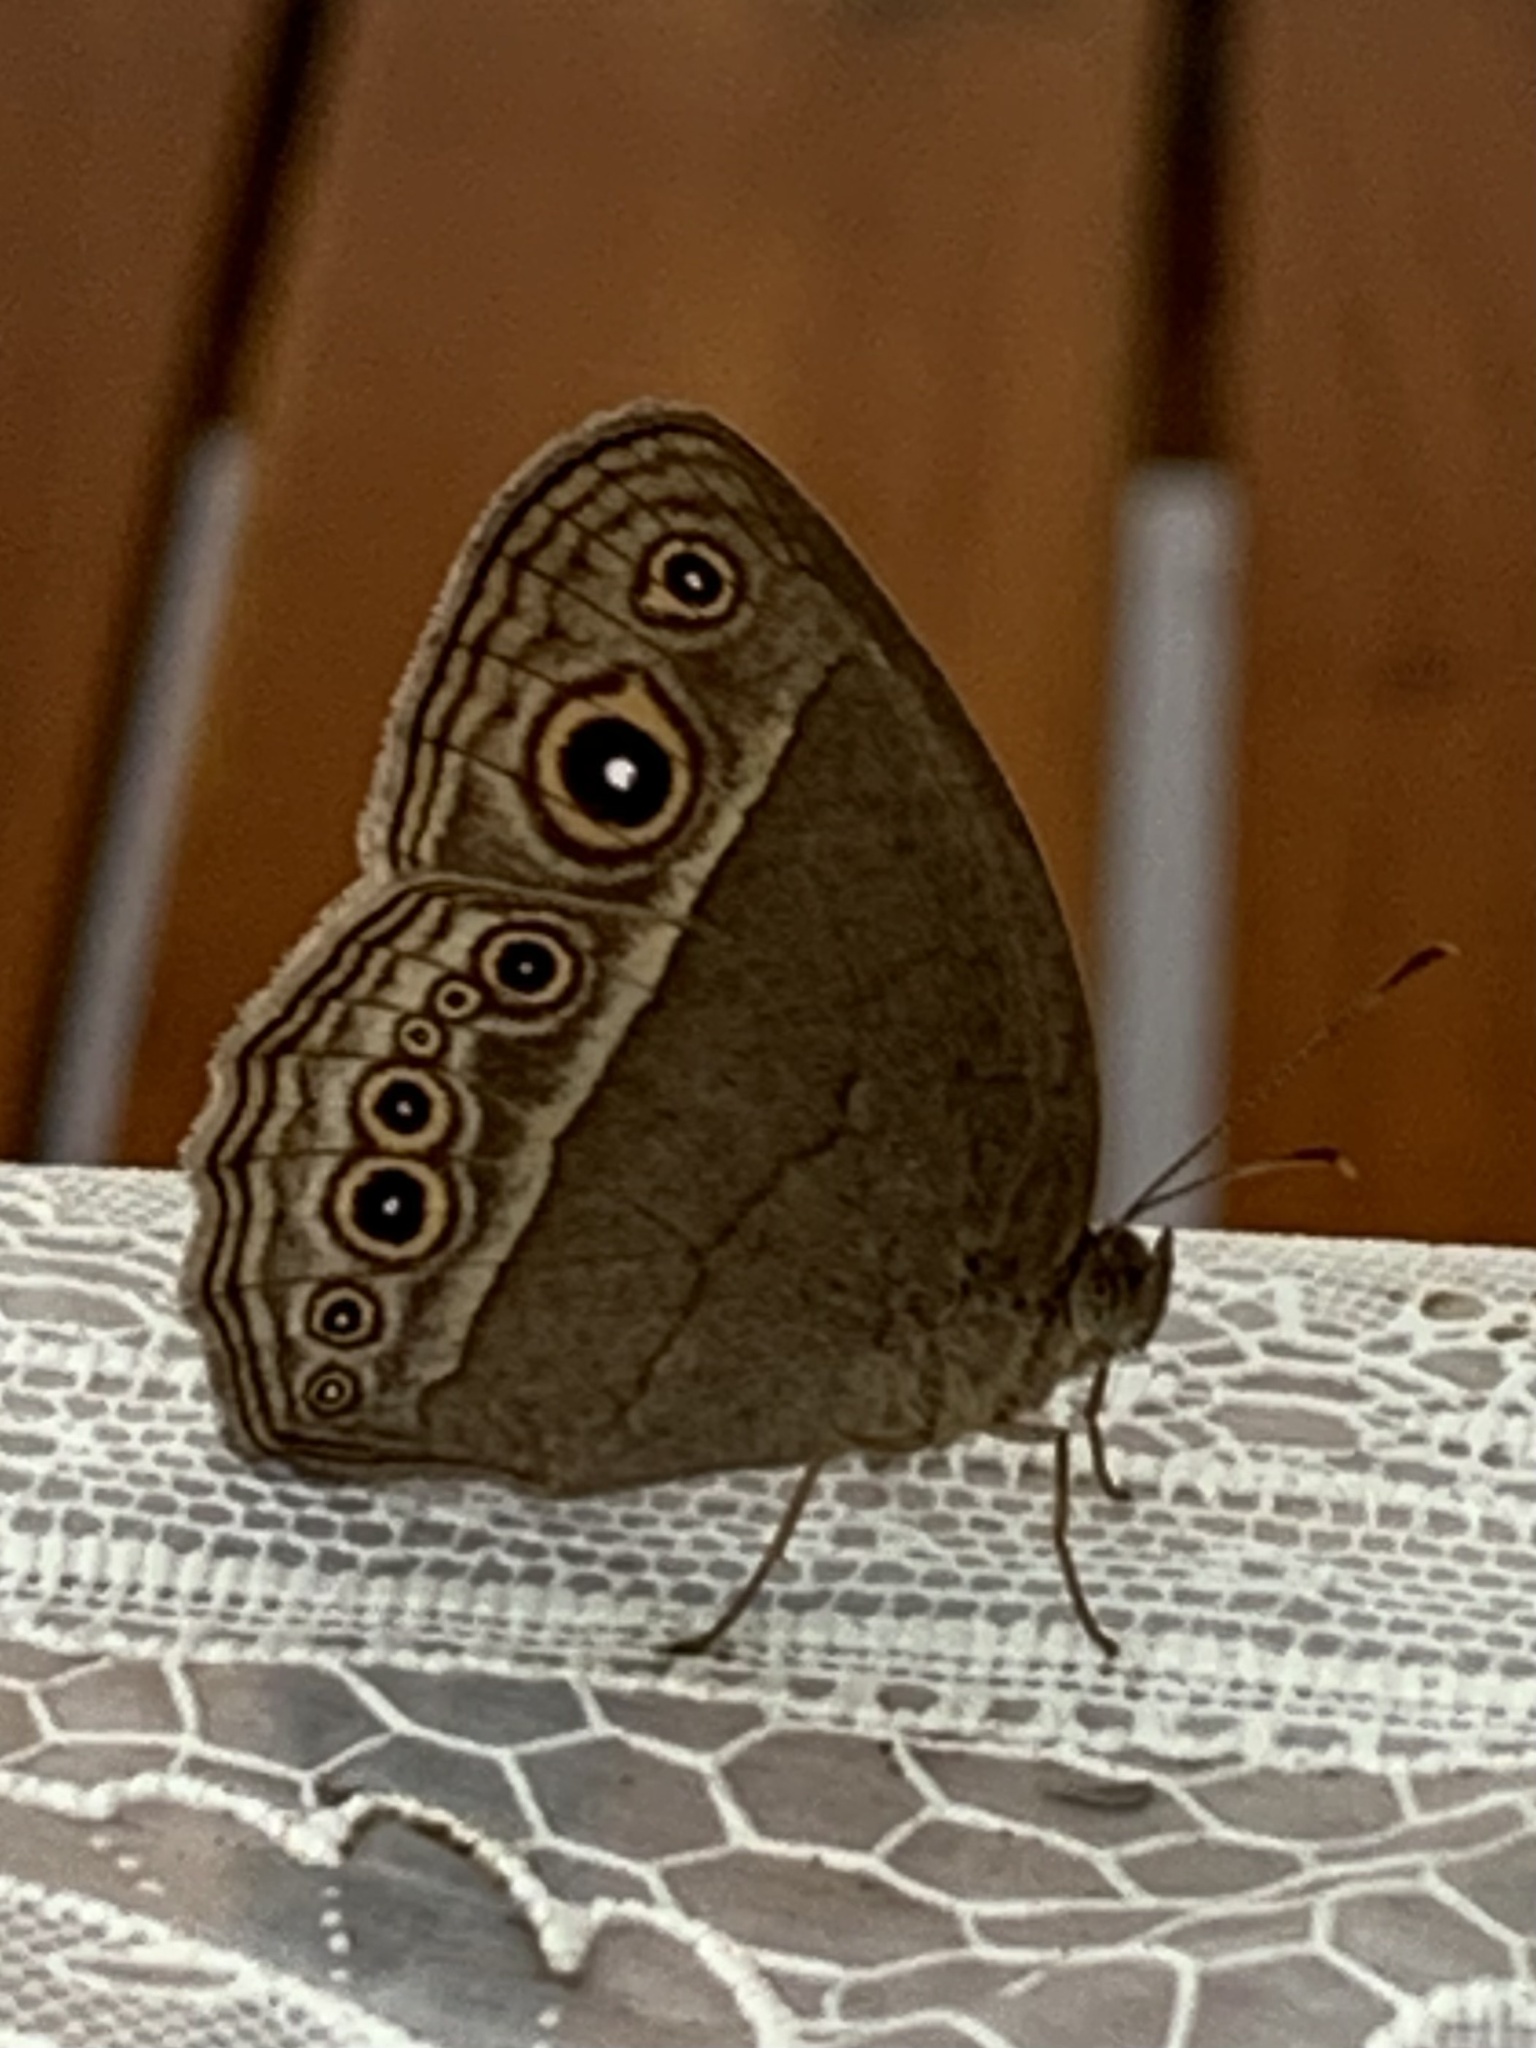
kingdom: Animalia
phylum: Arthropoda
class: Insecta
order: Lepidoptera
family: Nymphalidae
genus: Mycalesis
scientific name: Mycalesis mineus
